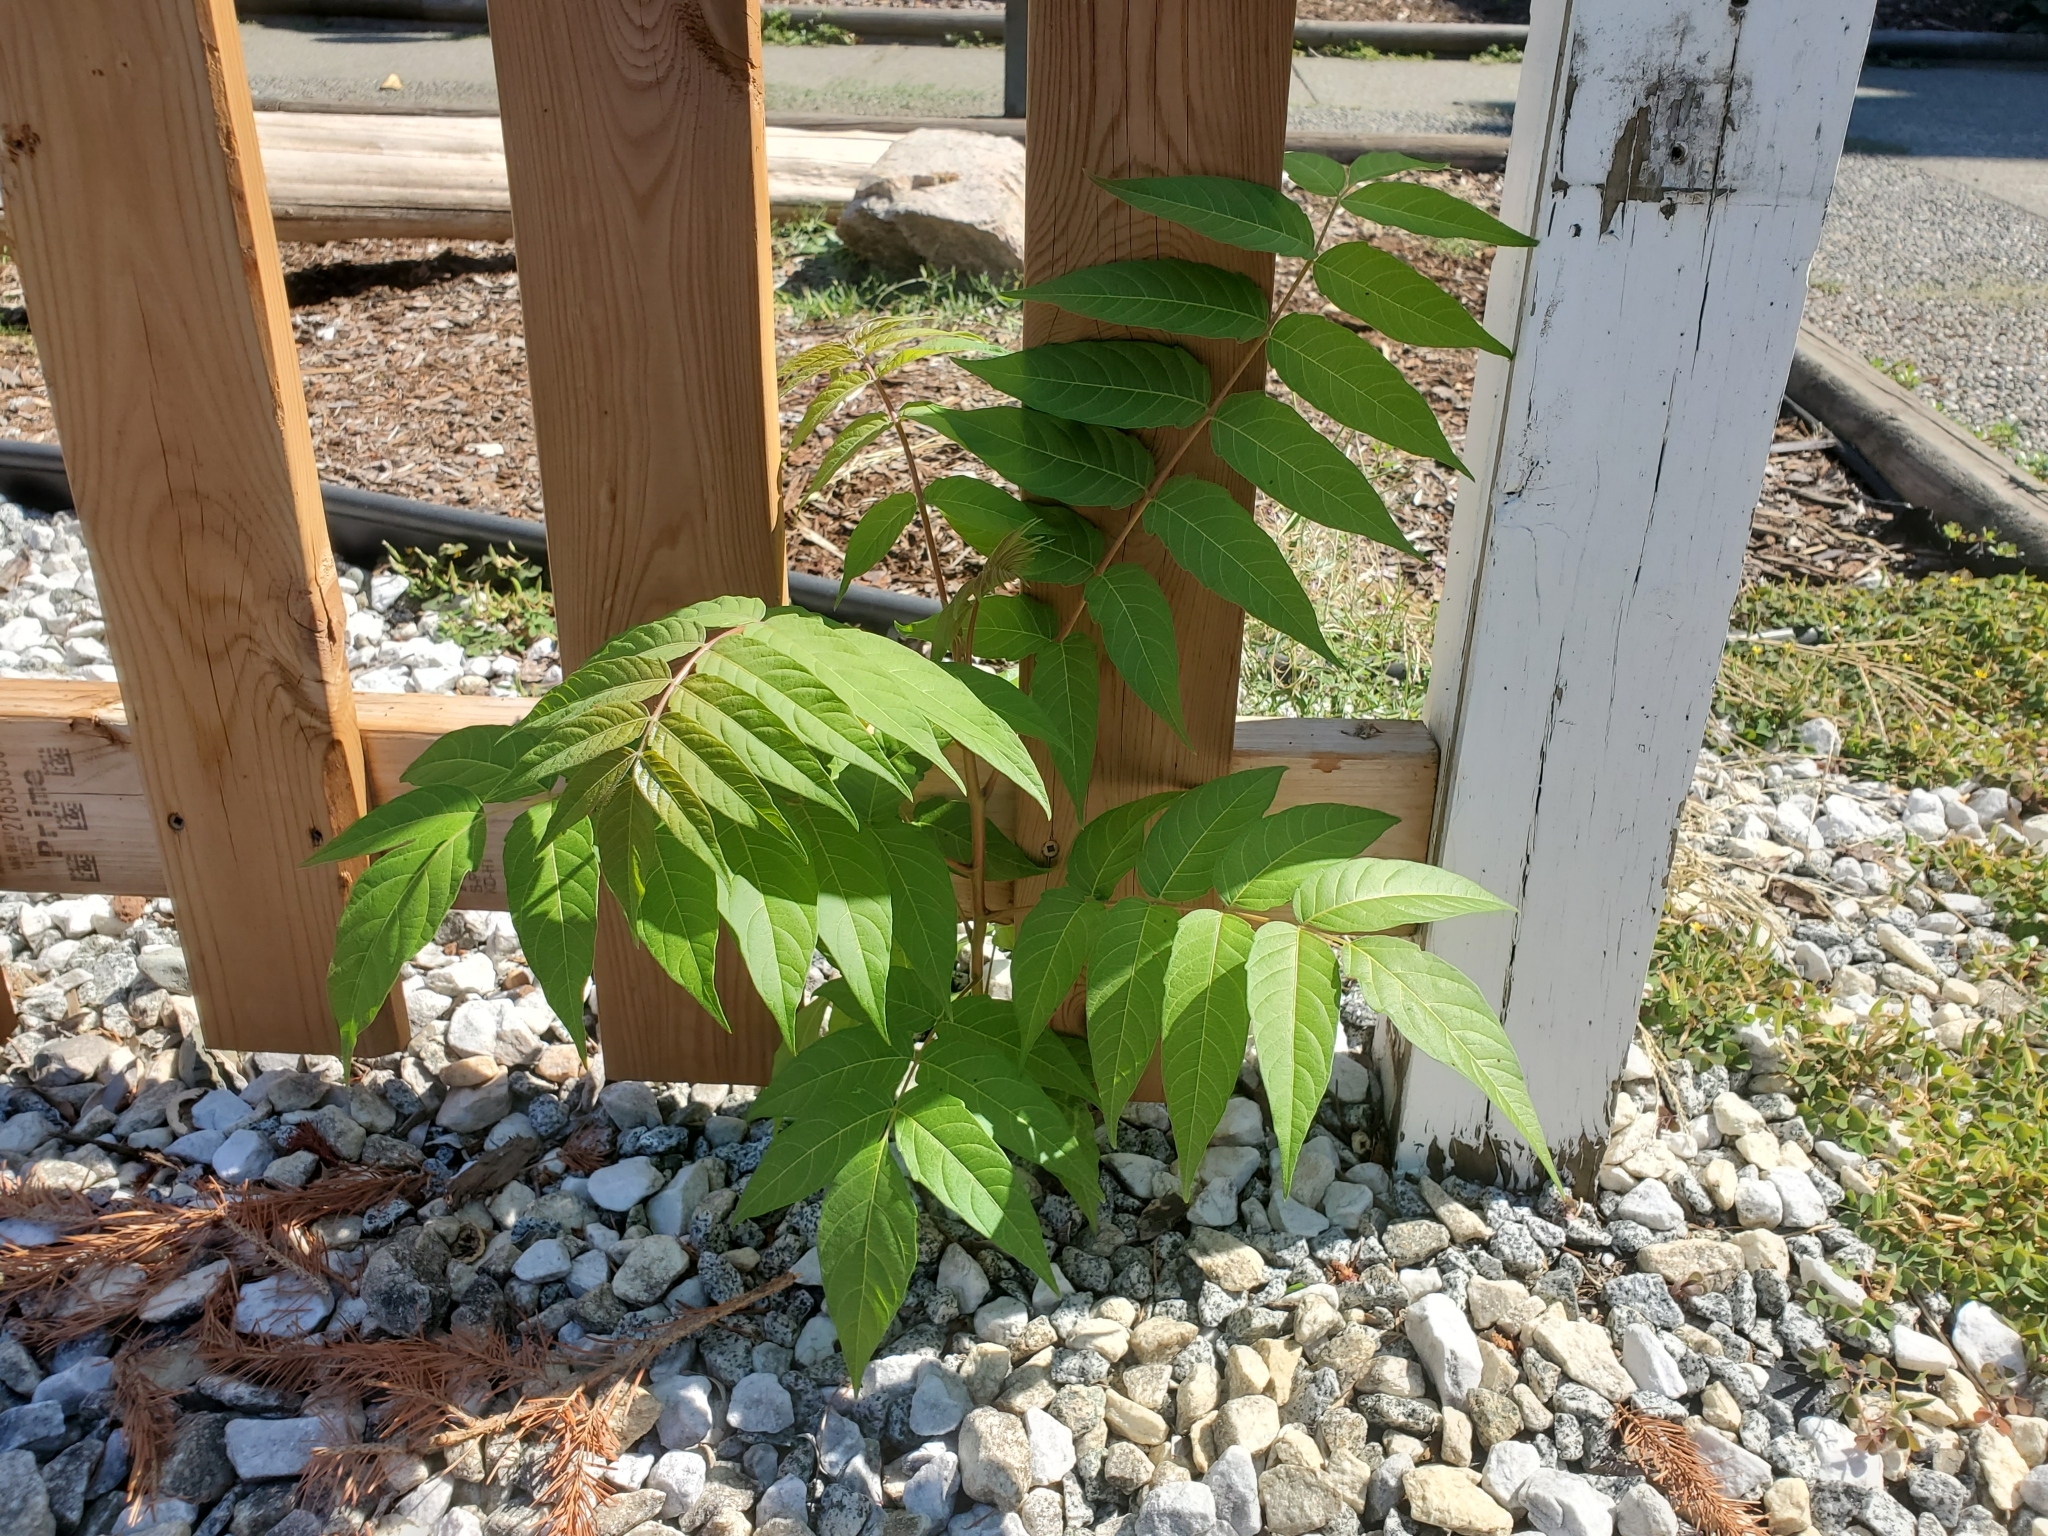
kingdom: Plantae
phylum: Tracheophyta
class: Magnoliopsida
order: Sapindales
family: Simaroubaceae
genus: Ailanthus
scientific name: Ailanthus altissima
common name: Tree-of-heaven
